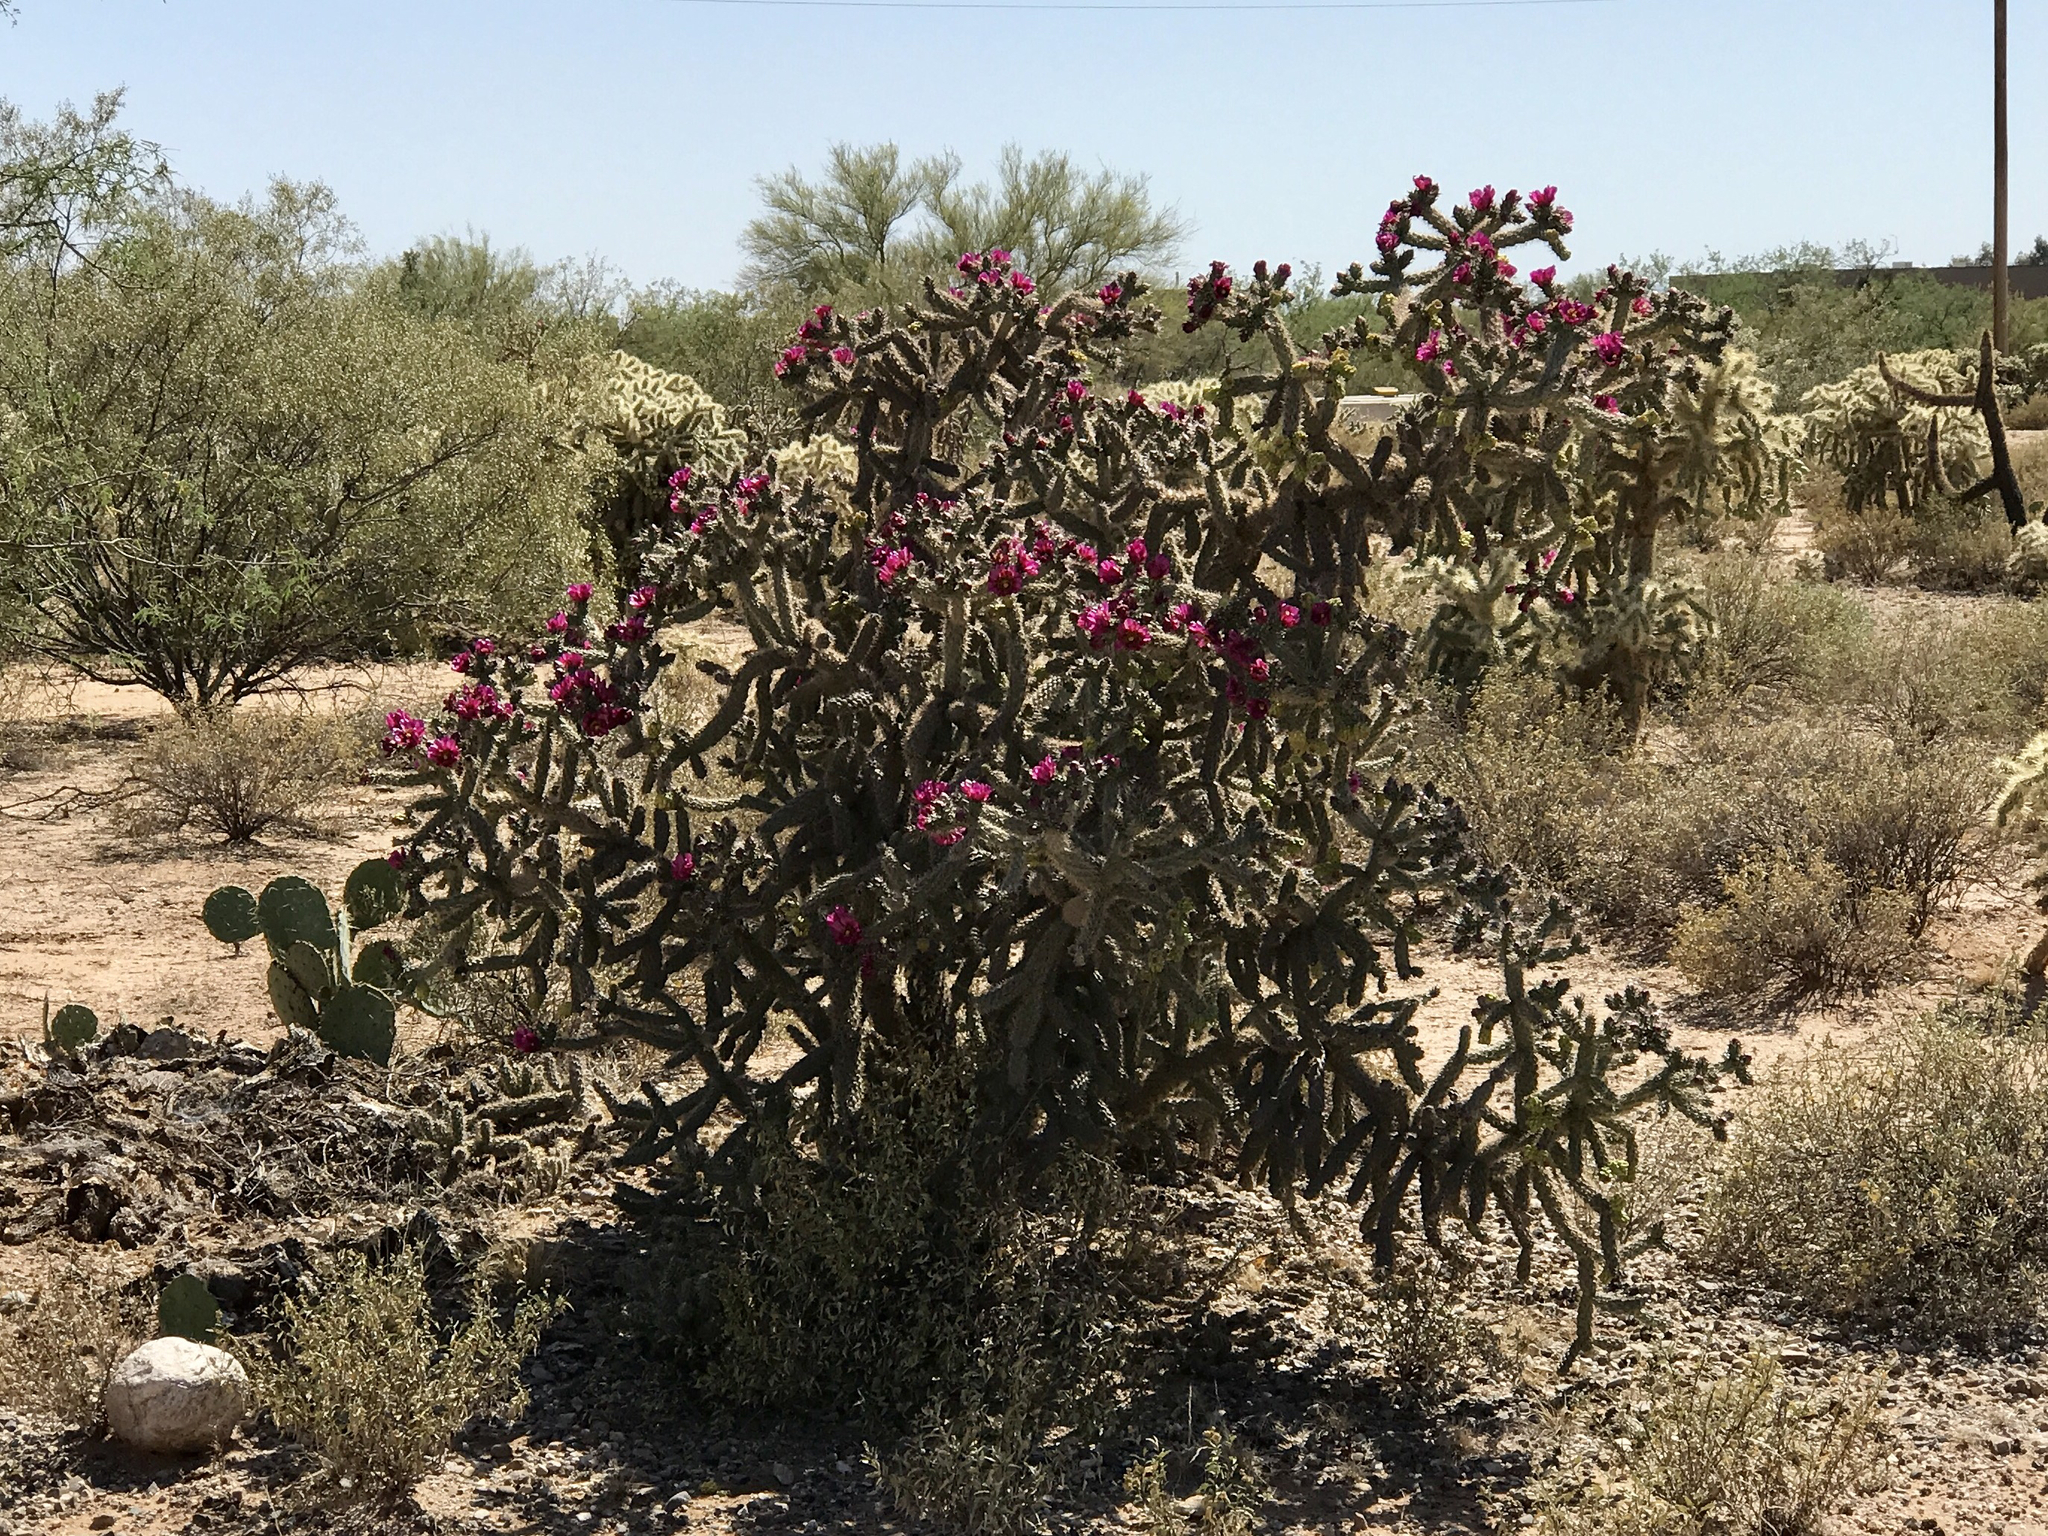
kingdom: Plantae
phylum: Tracheophyta
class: Magnoliopsida
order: Caryophyllales
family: Cactaceae
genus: Cylindropuntia
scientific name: Cylindropuntia imbricata
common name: Candelabrum cactus
